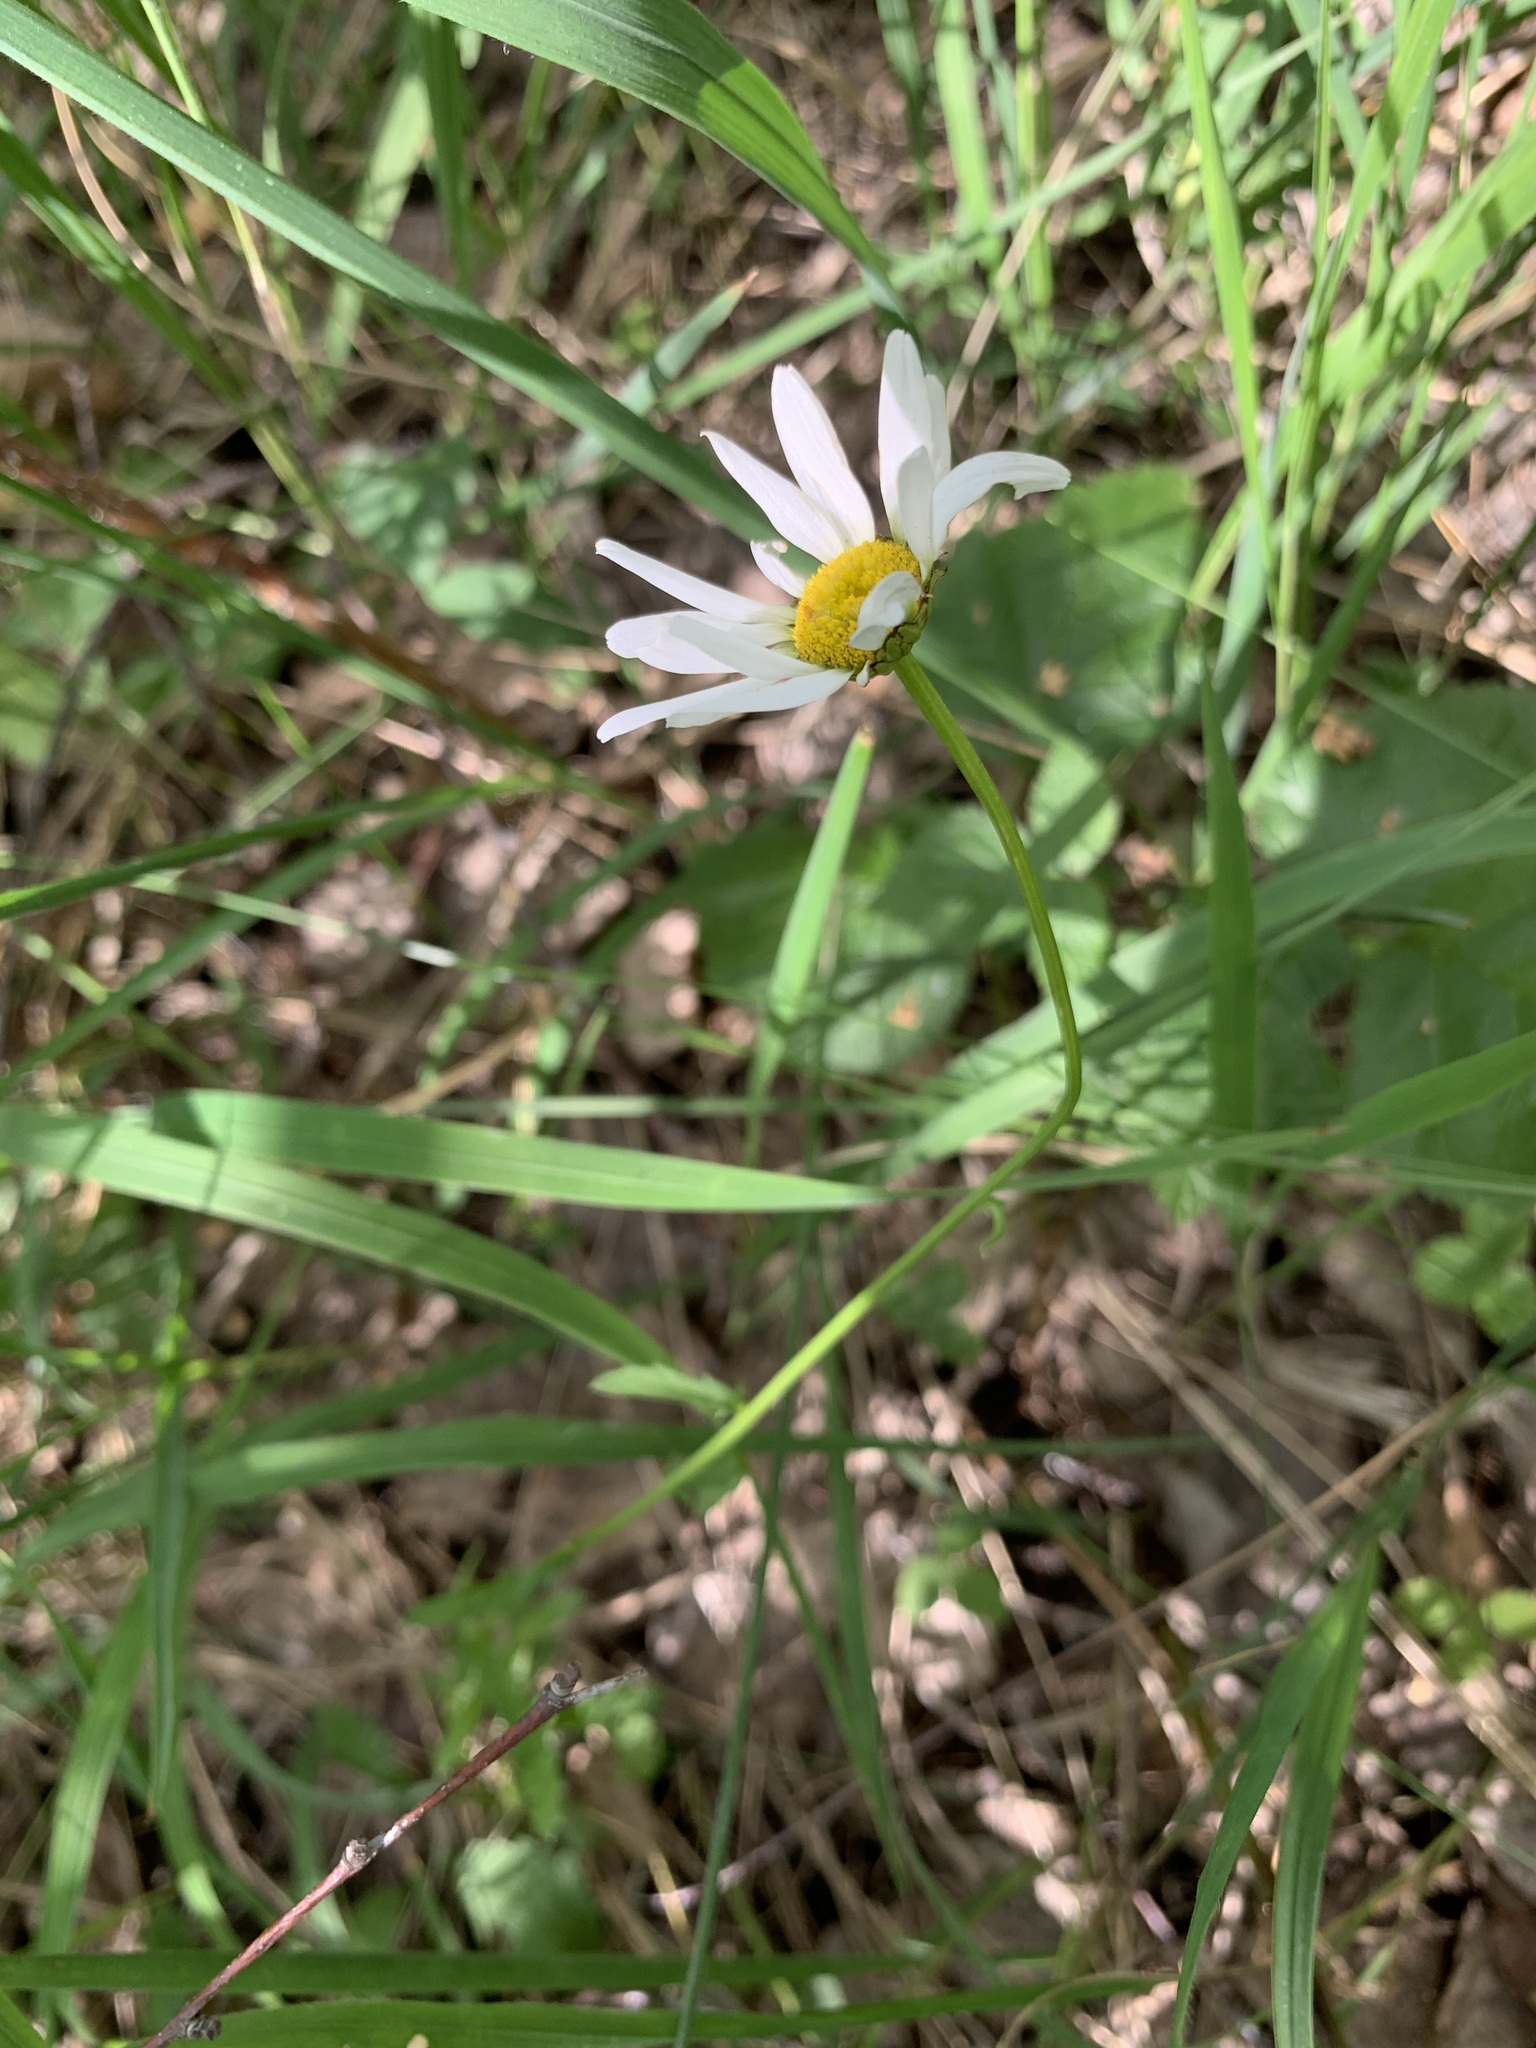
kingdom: Plantae
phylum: Tracheophyta
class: Magnoliopsida
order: Asterales
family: Asteraceae
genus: Leucanthemum
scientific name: Leucanthemum ircutianum
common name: Daisy
